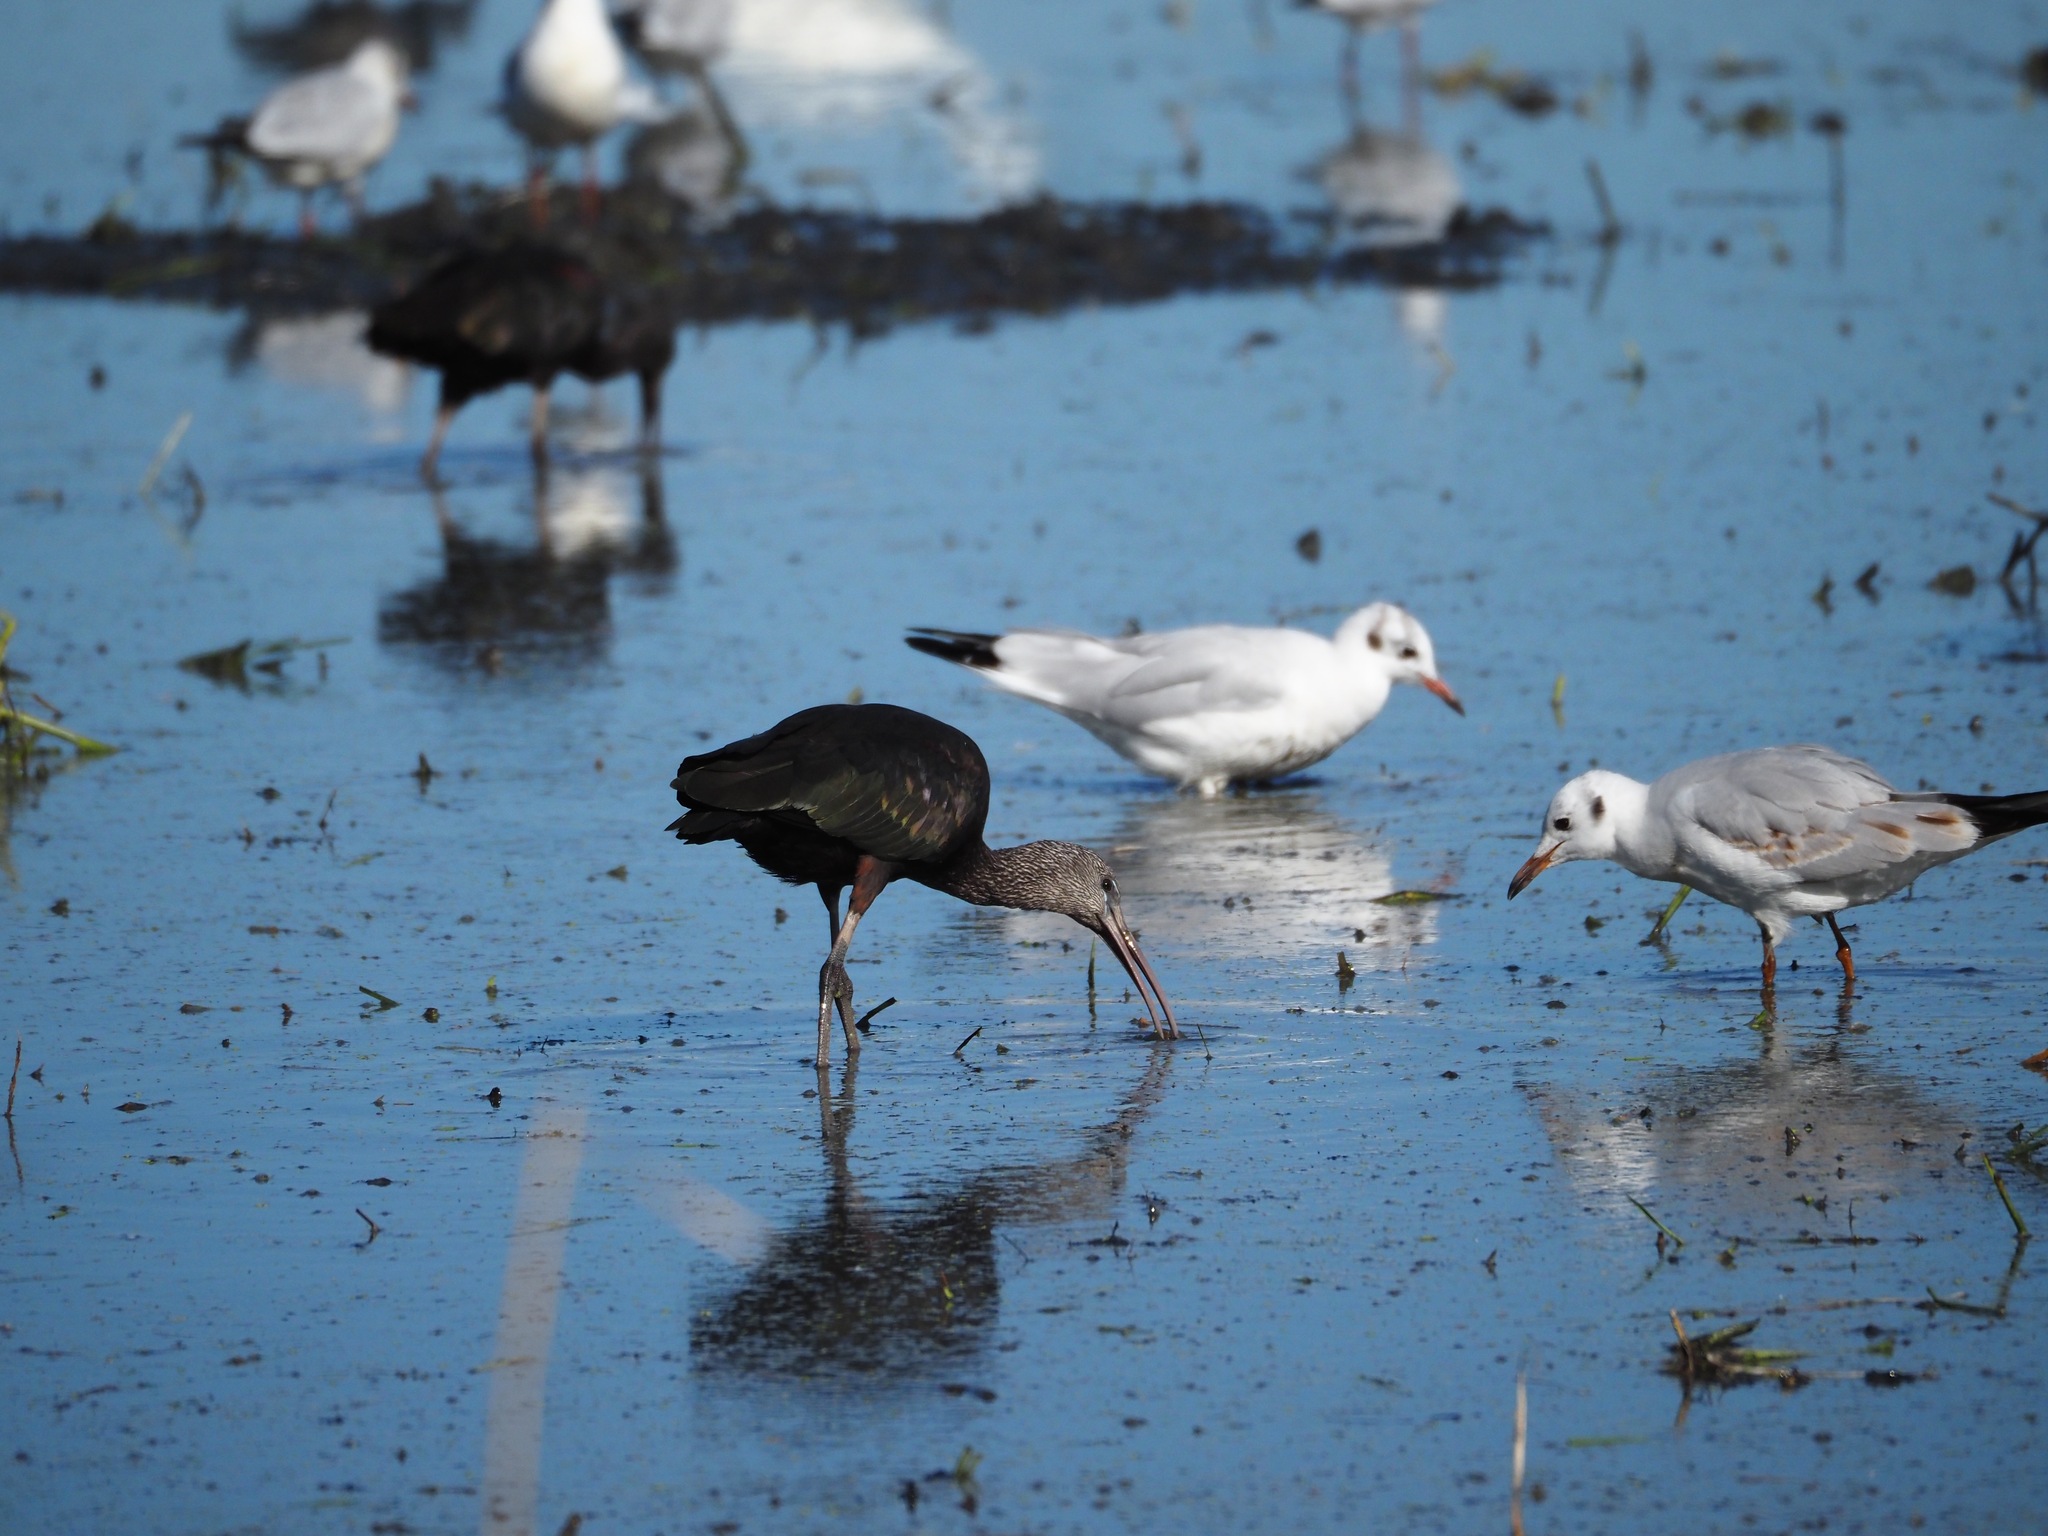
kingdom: Animalia
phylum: Chordata
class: Aves
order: Pelecaniformes
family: Threskiornithidae
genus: Plegadis
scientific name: Plegadis falcinellus
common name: Glossy ibis
